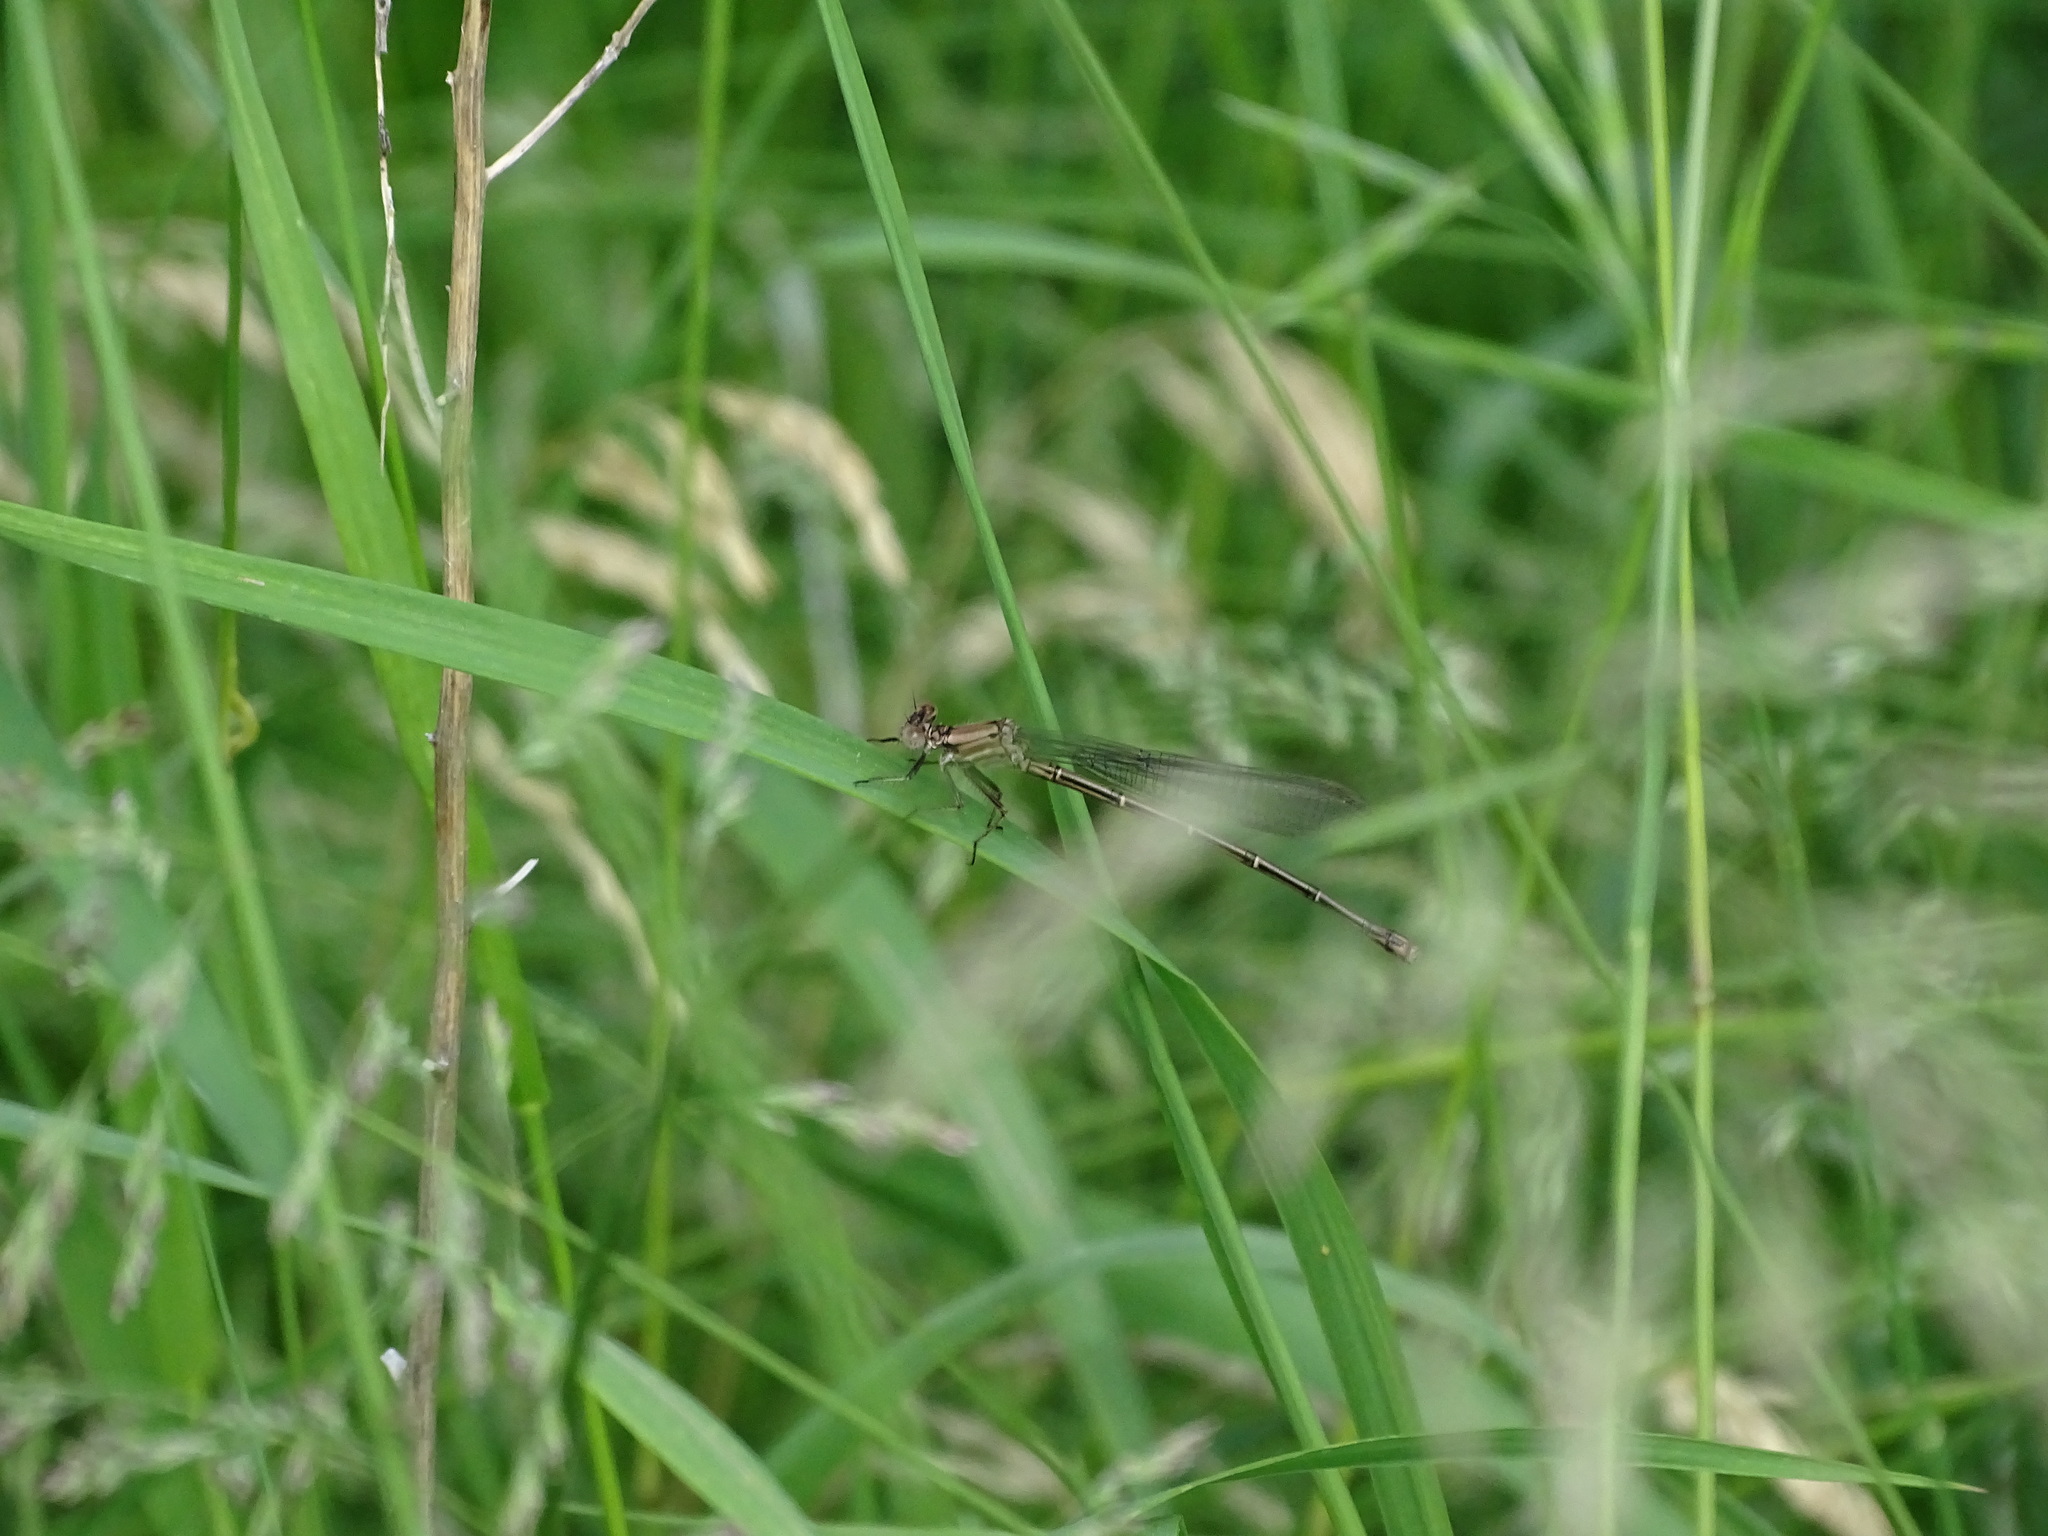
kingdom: Animalia
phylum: Arthropoda
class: Insecta
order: Odonata
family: Coenagrionidae
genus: Argia
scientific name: Argia moesta
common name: Powdered dancer
